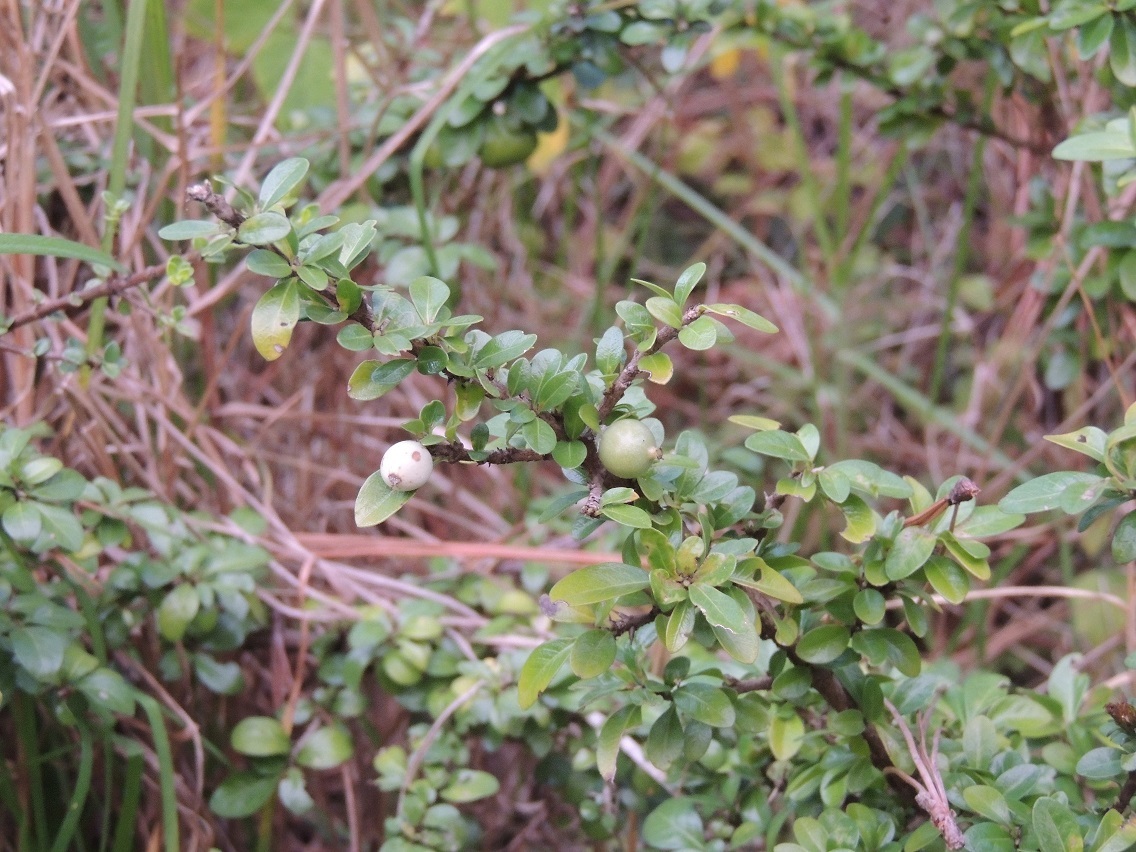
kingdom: Plantae
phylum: Tracheophyta
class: Magnoliopsida
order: Gentianales
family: Rubiaceae
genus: Randia
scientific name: Randia chiapensis
